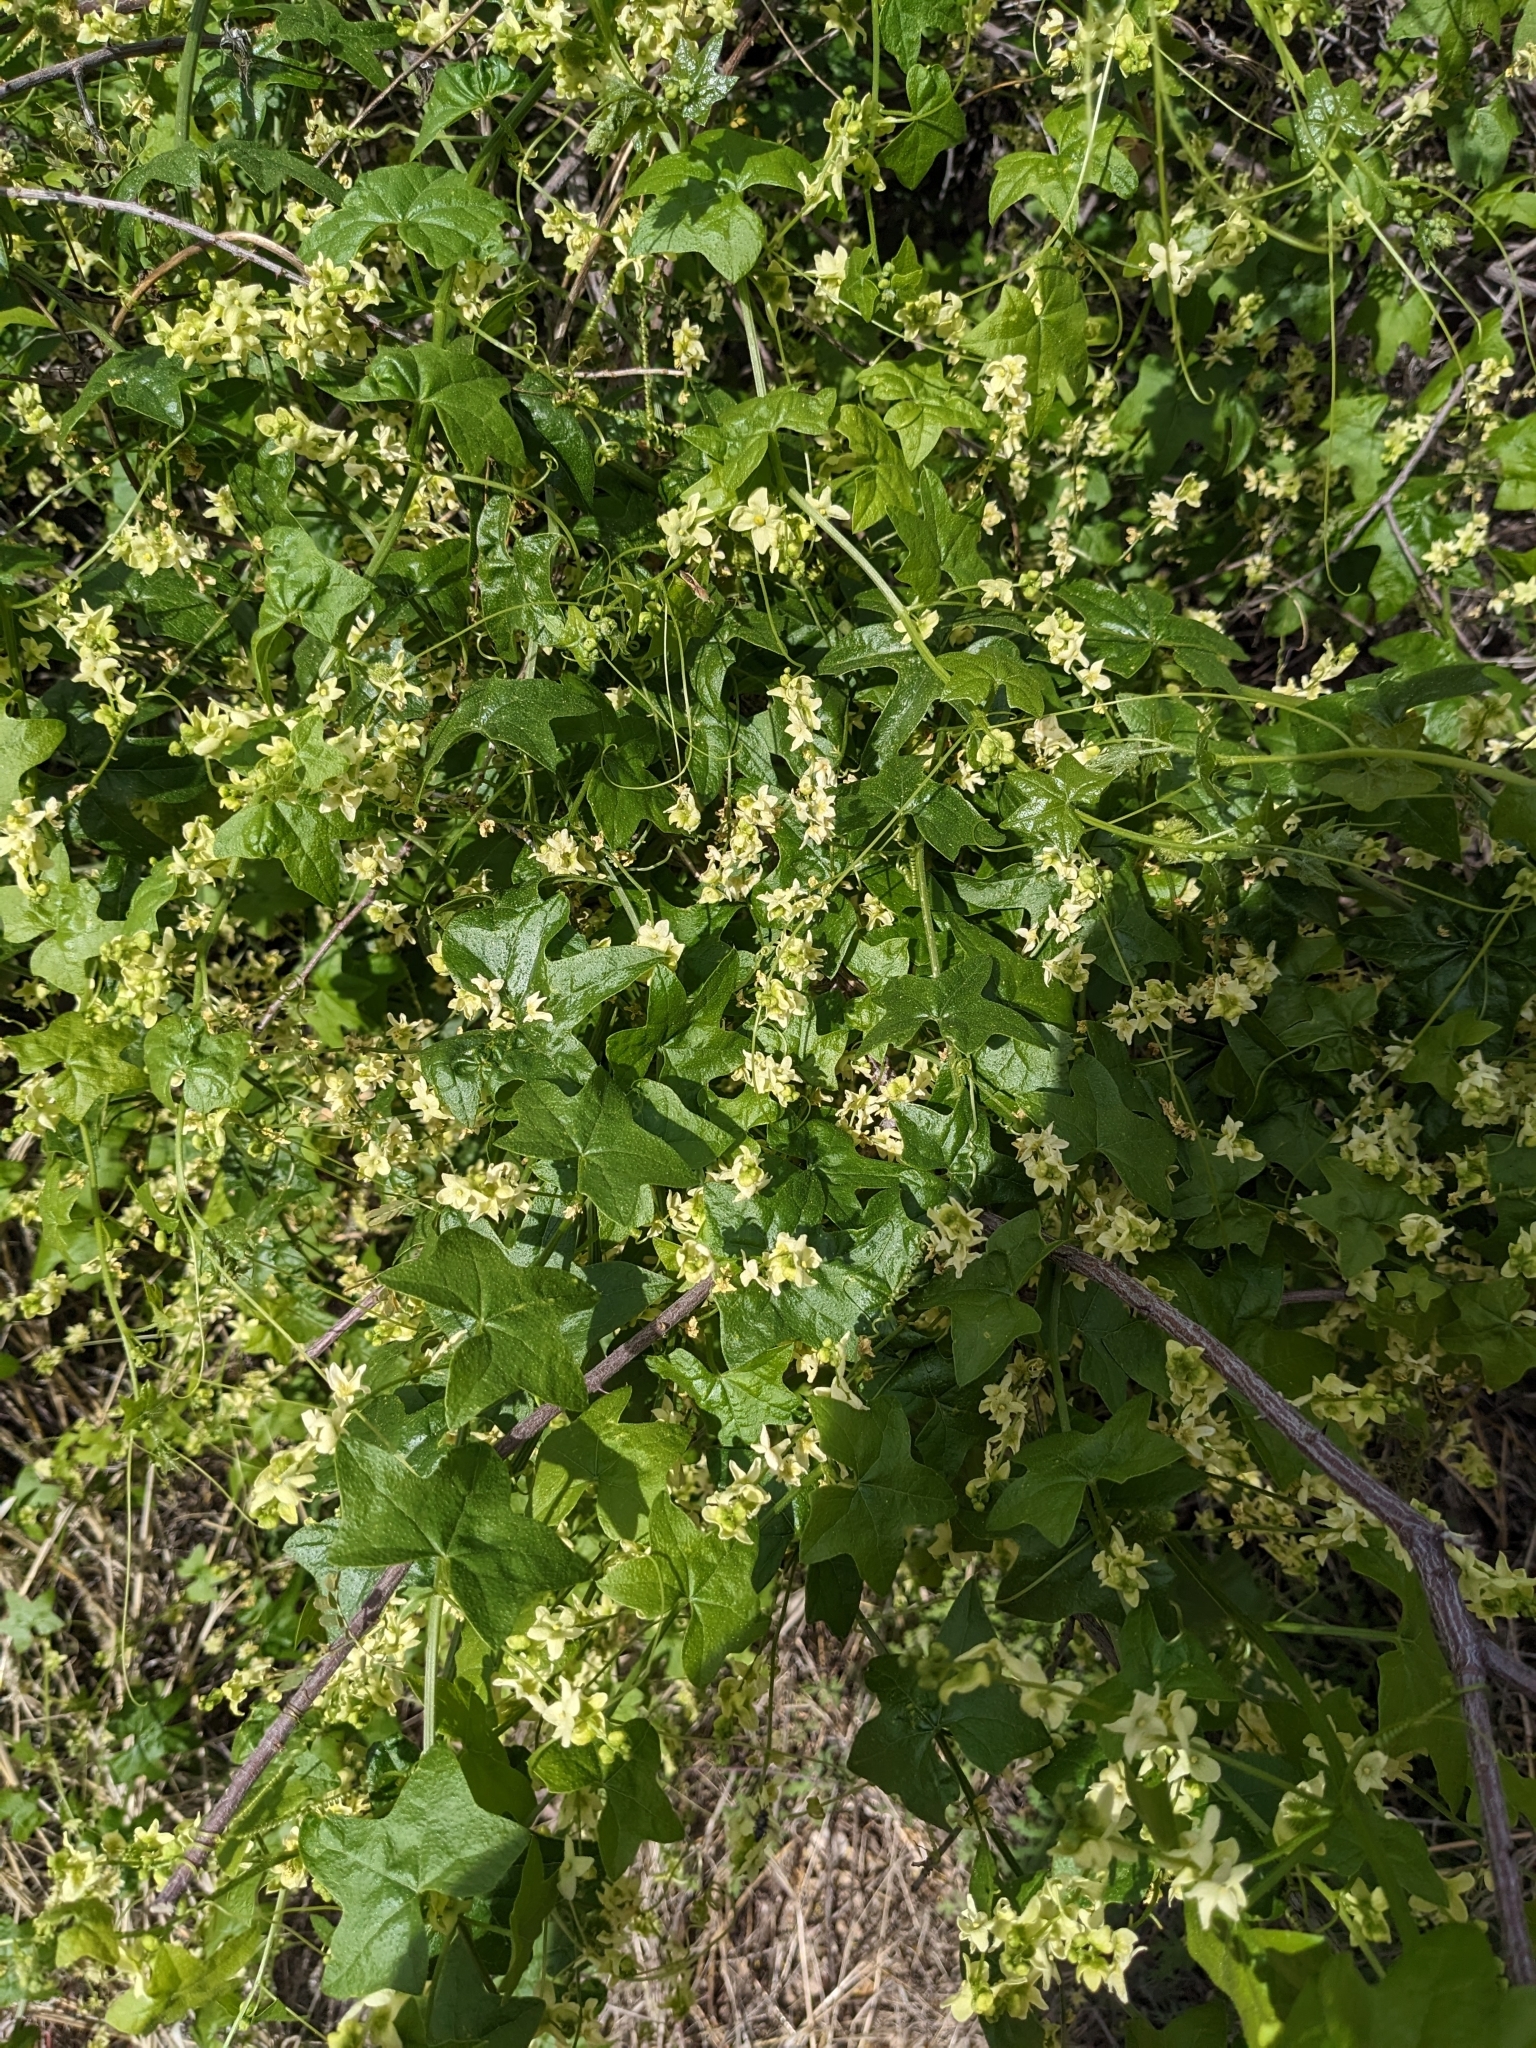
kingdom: Plantae
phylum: Tracheophyta
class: Magnoliopsida
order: Cucurbitales
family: Cucurbitaceae
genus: Marah
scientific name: Marah gilensis
